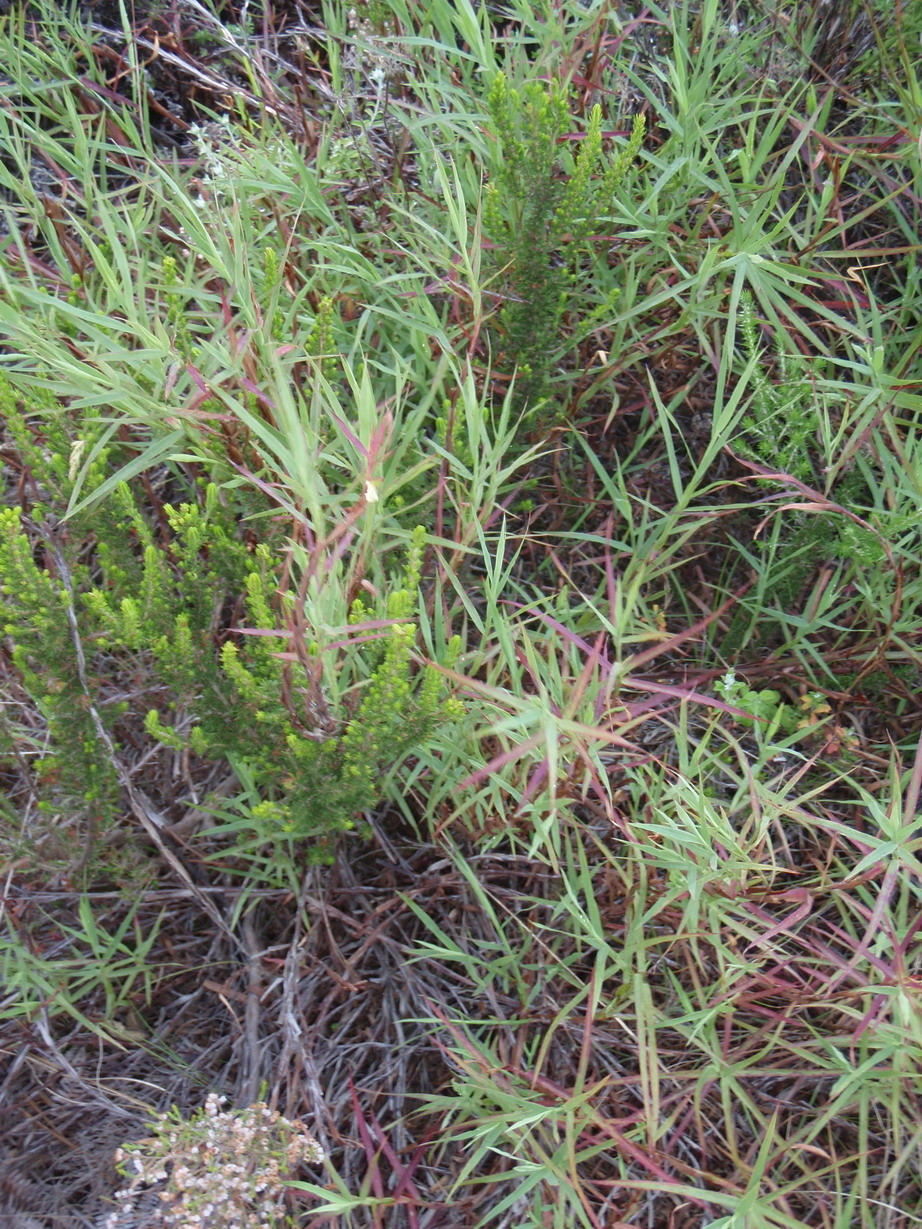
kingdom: Plantae
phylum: Tracheophyta
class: Magnoliopsida
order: Rosales
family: Rosaceae
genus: Cliffortia
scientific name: Cliffortia graminea
